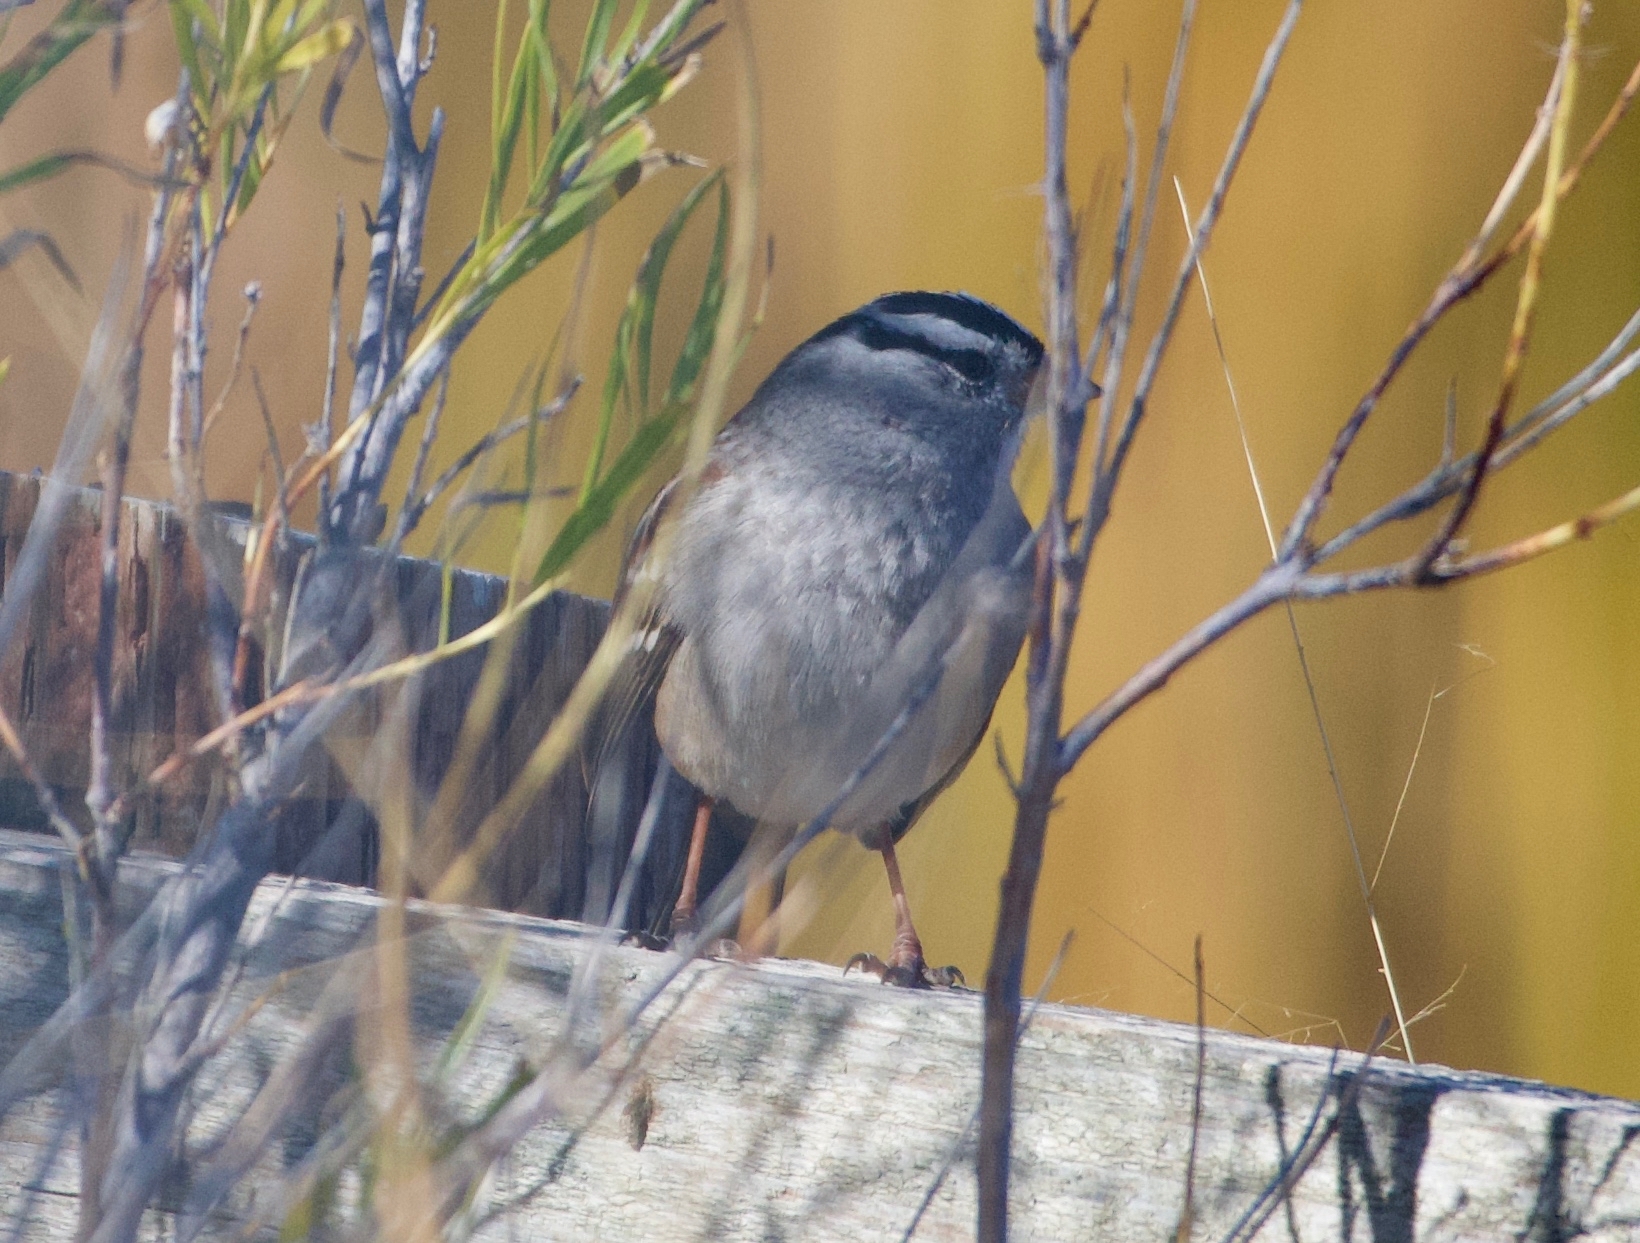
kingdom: Animalia
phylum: Chordata
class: Aves
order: Passeriformes
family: Passerellidae
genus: Zonotrichia
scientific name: Zonotrichia leucophrys
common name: White-crowned sparrow
